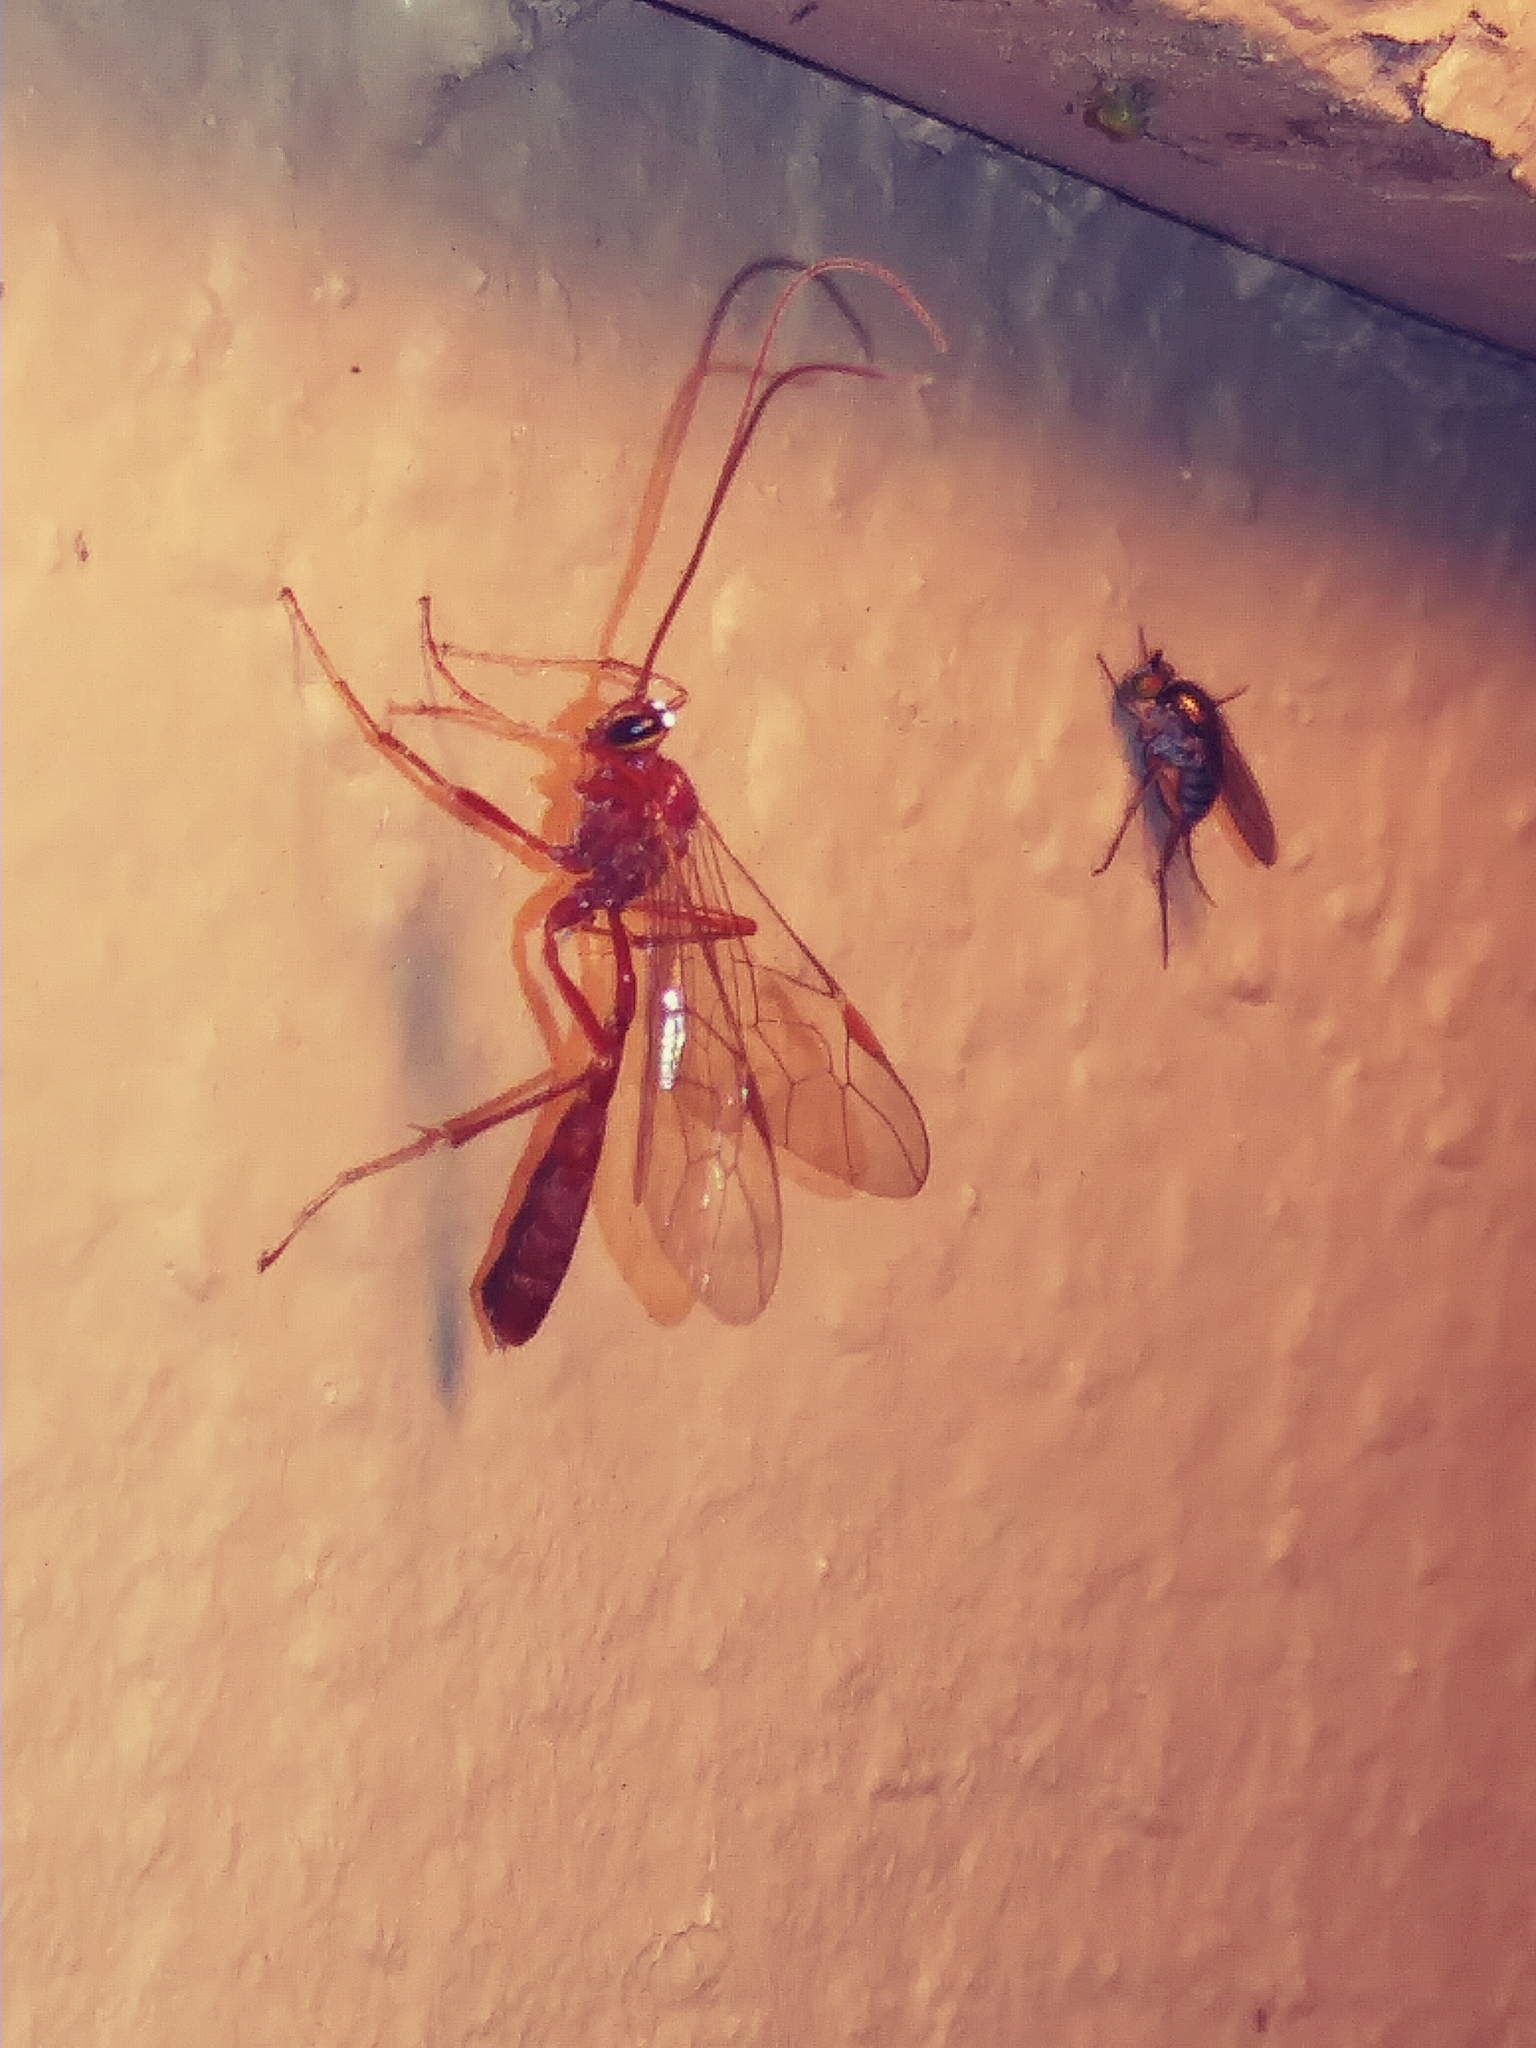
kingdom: Animalia
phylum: Arthropoda
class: Insecta
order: Hymenoptera
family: Ichneumonidae
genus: Ophion
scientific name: Ophion
